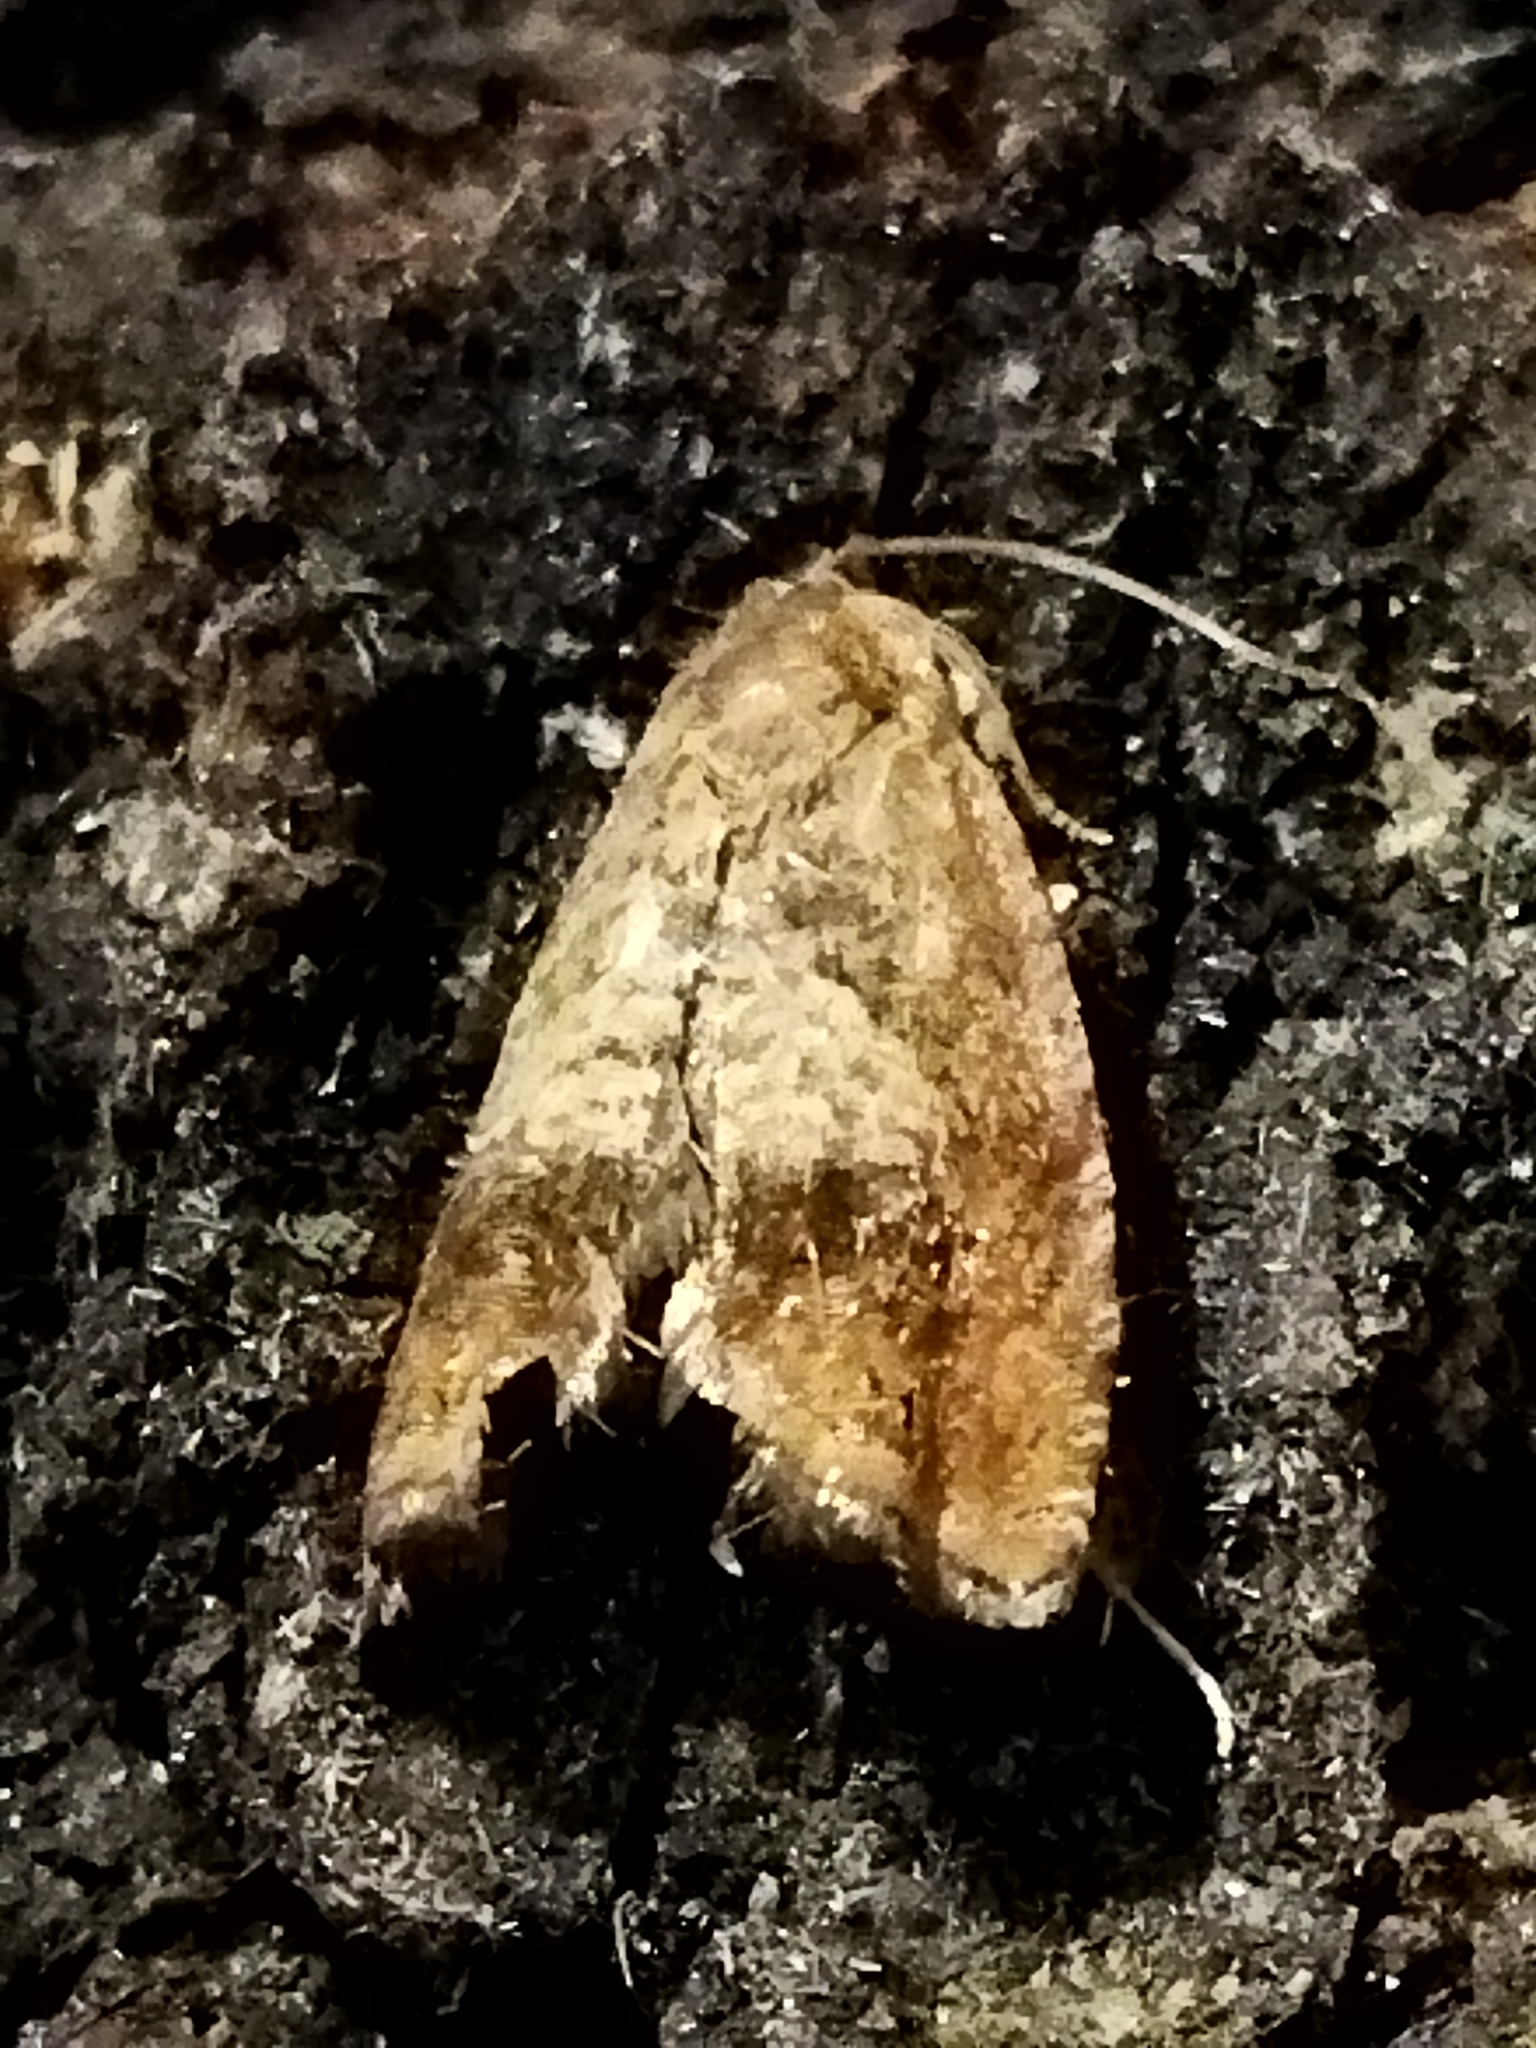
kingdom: Animalia
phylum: Arthropoda
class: Insecta
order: Lepidoptera
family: Tortricidae
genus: Cydia
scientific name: Cydia amplana
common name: Vagrant piercer
